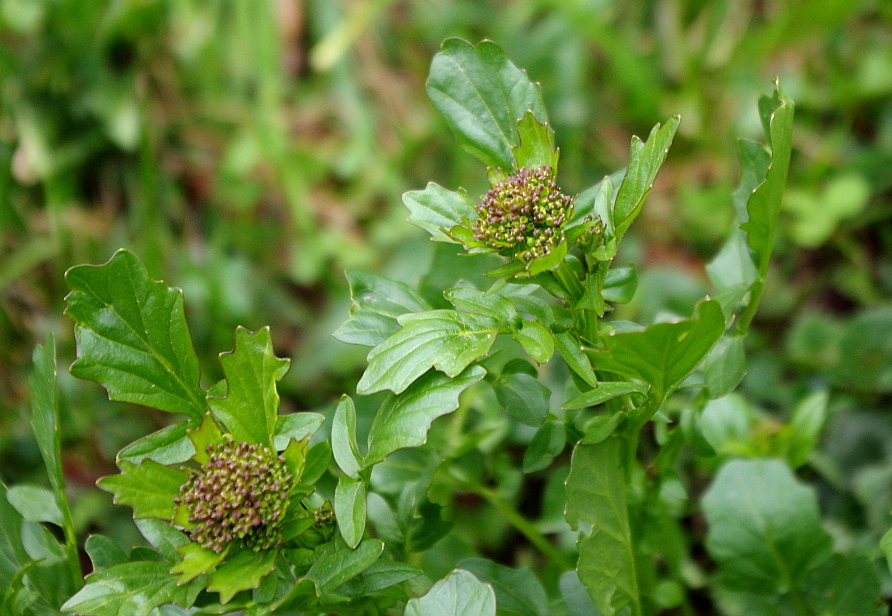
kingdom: Plantae
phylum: Tracheophyta
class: Magnoliopsida
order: Brassicales
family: Brassicaceae
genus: Barbarea
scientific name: Barbarea vulgaris
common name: Cressy-greens
